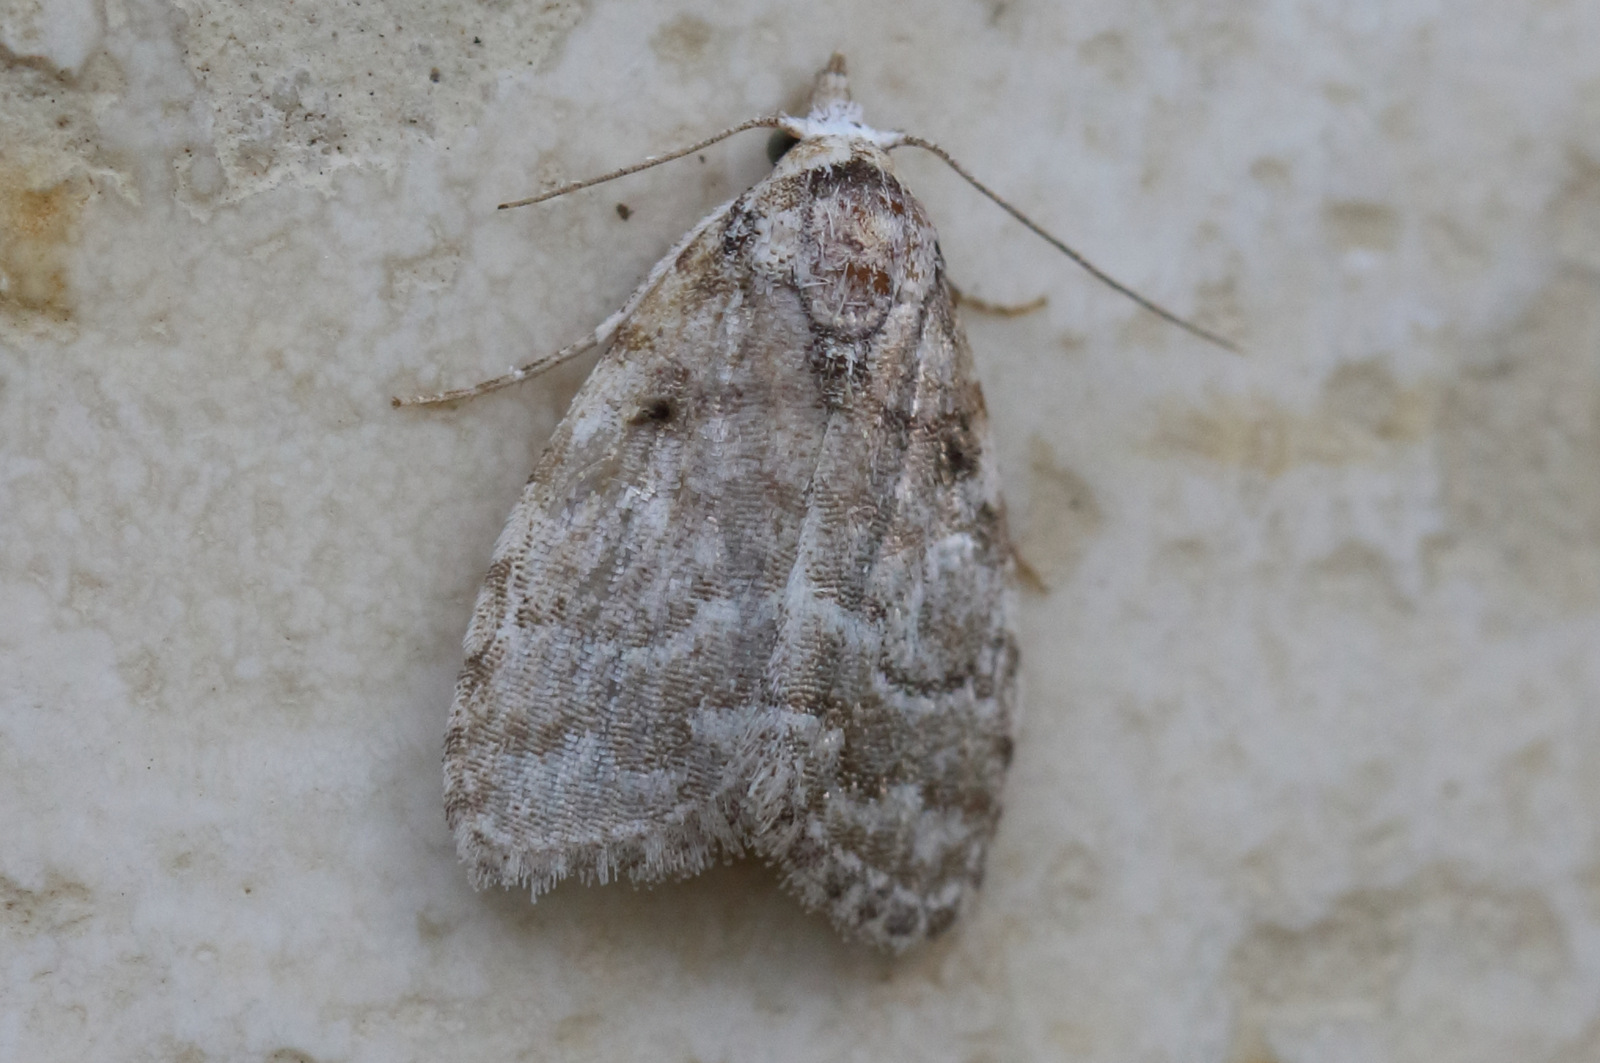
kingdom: Animalia
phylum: Arthropoda
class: Insecta
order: Lepidoptera
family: Nolidae
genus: Nola
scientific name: Nola Pisara hyalospila
